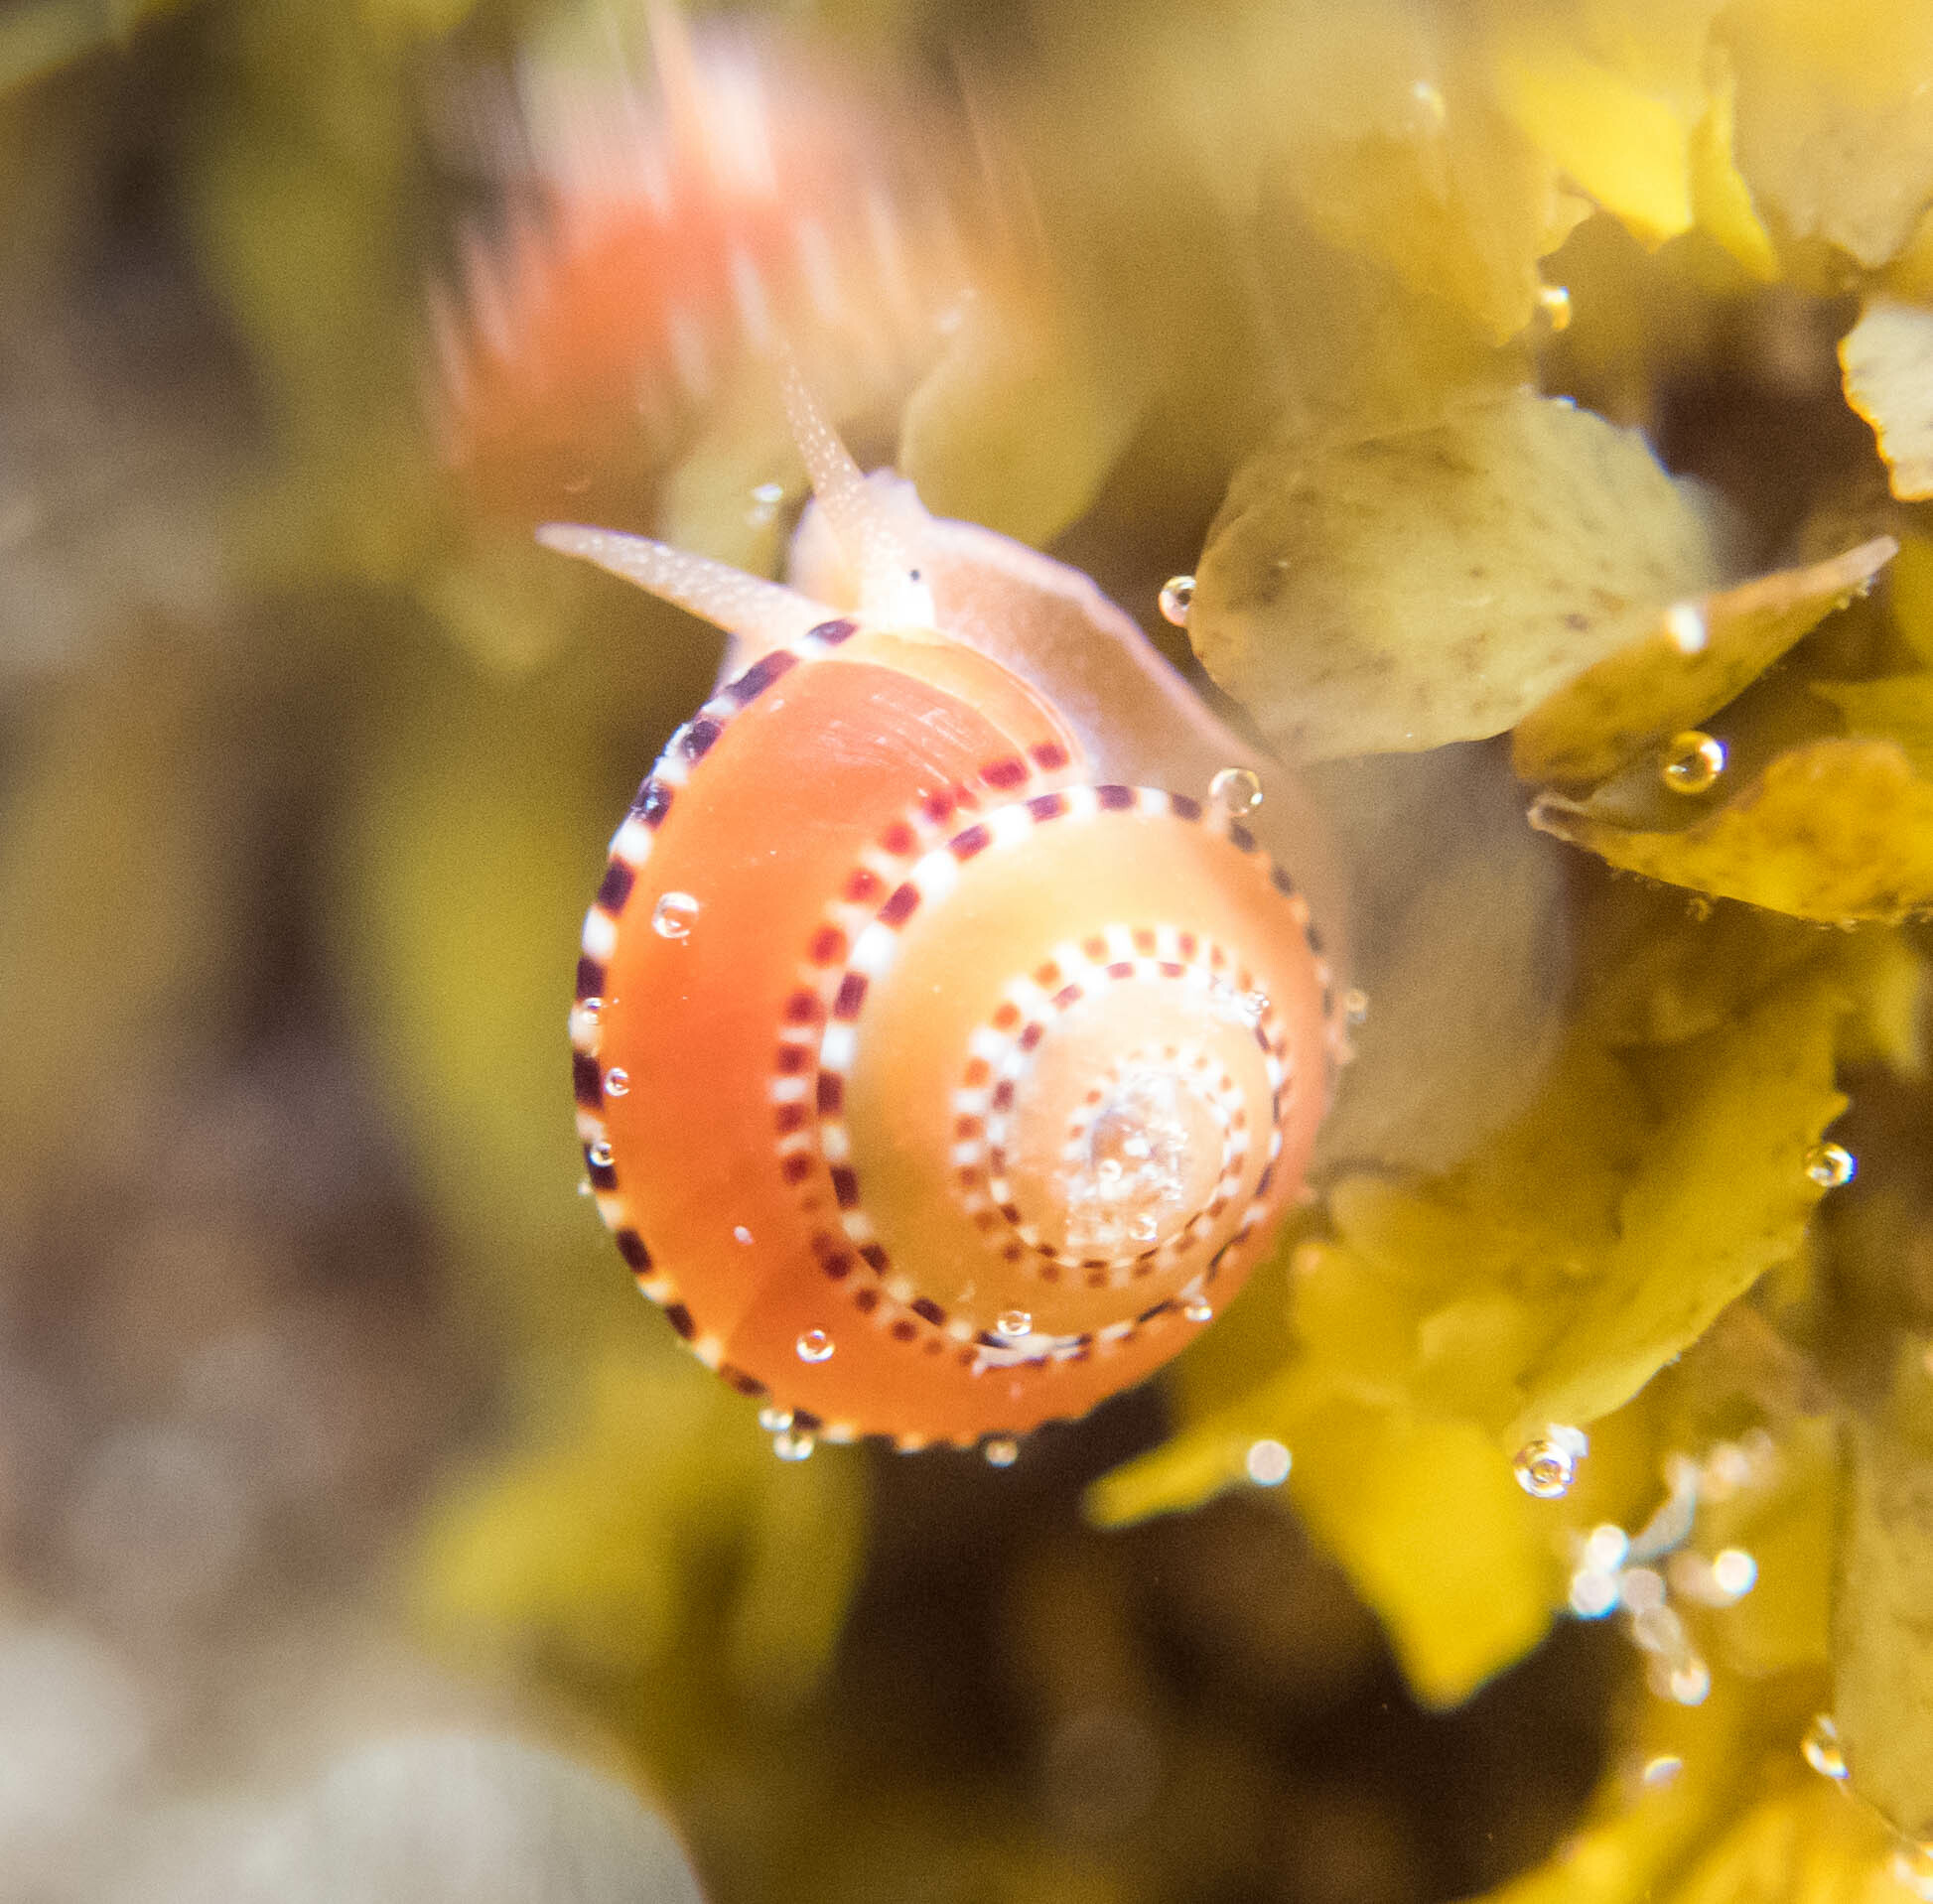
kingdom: Animalia
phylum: Mollusca
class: Gastropoda
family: Architectonicidae
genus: Philippia
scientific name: Philippia lutea
